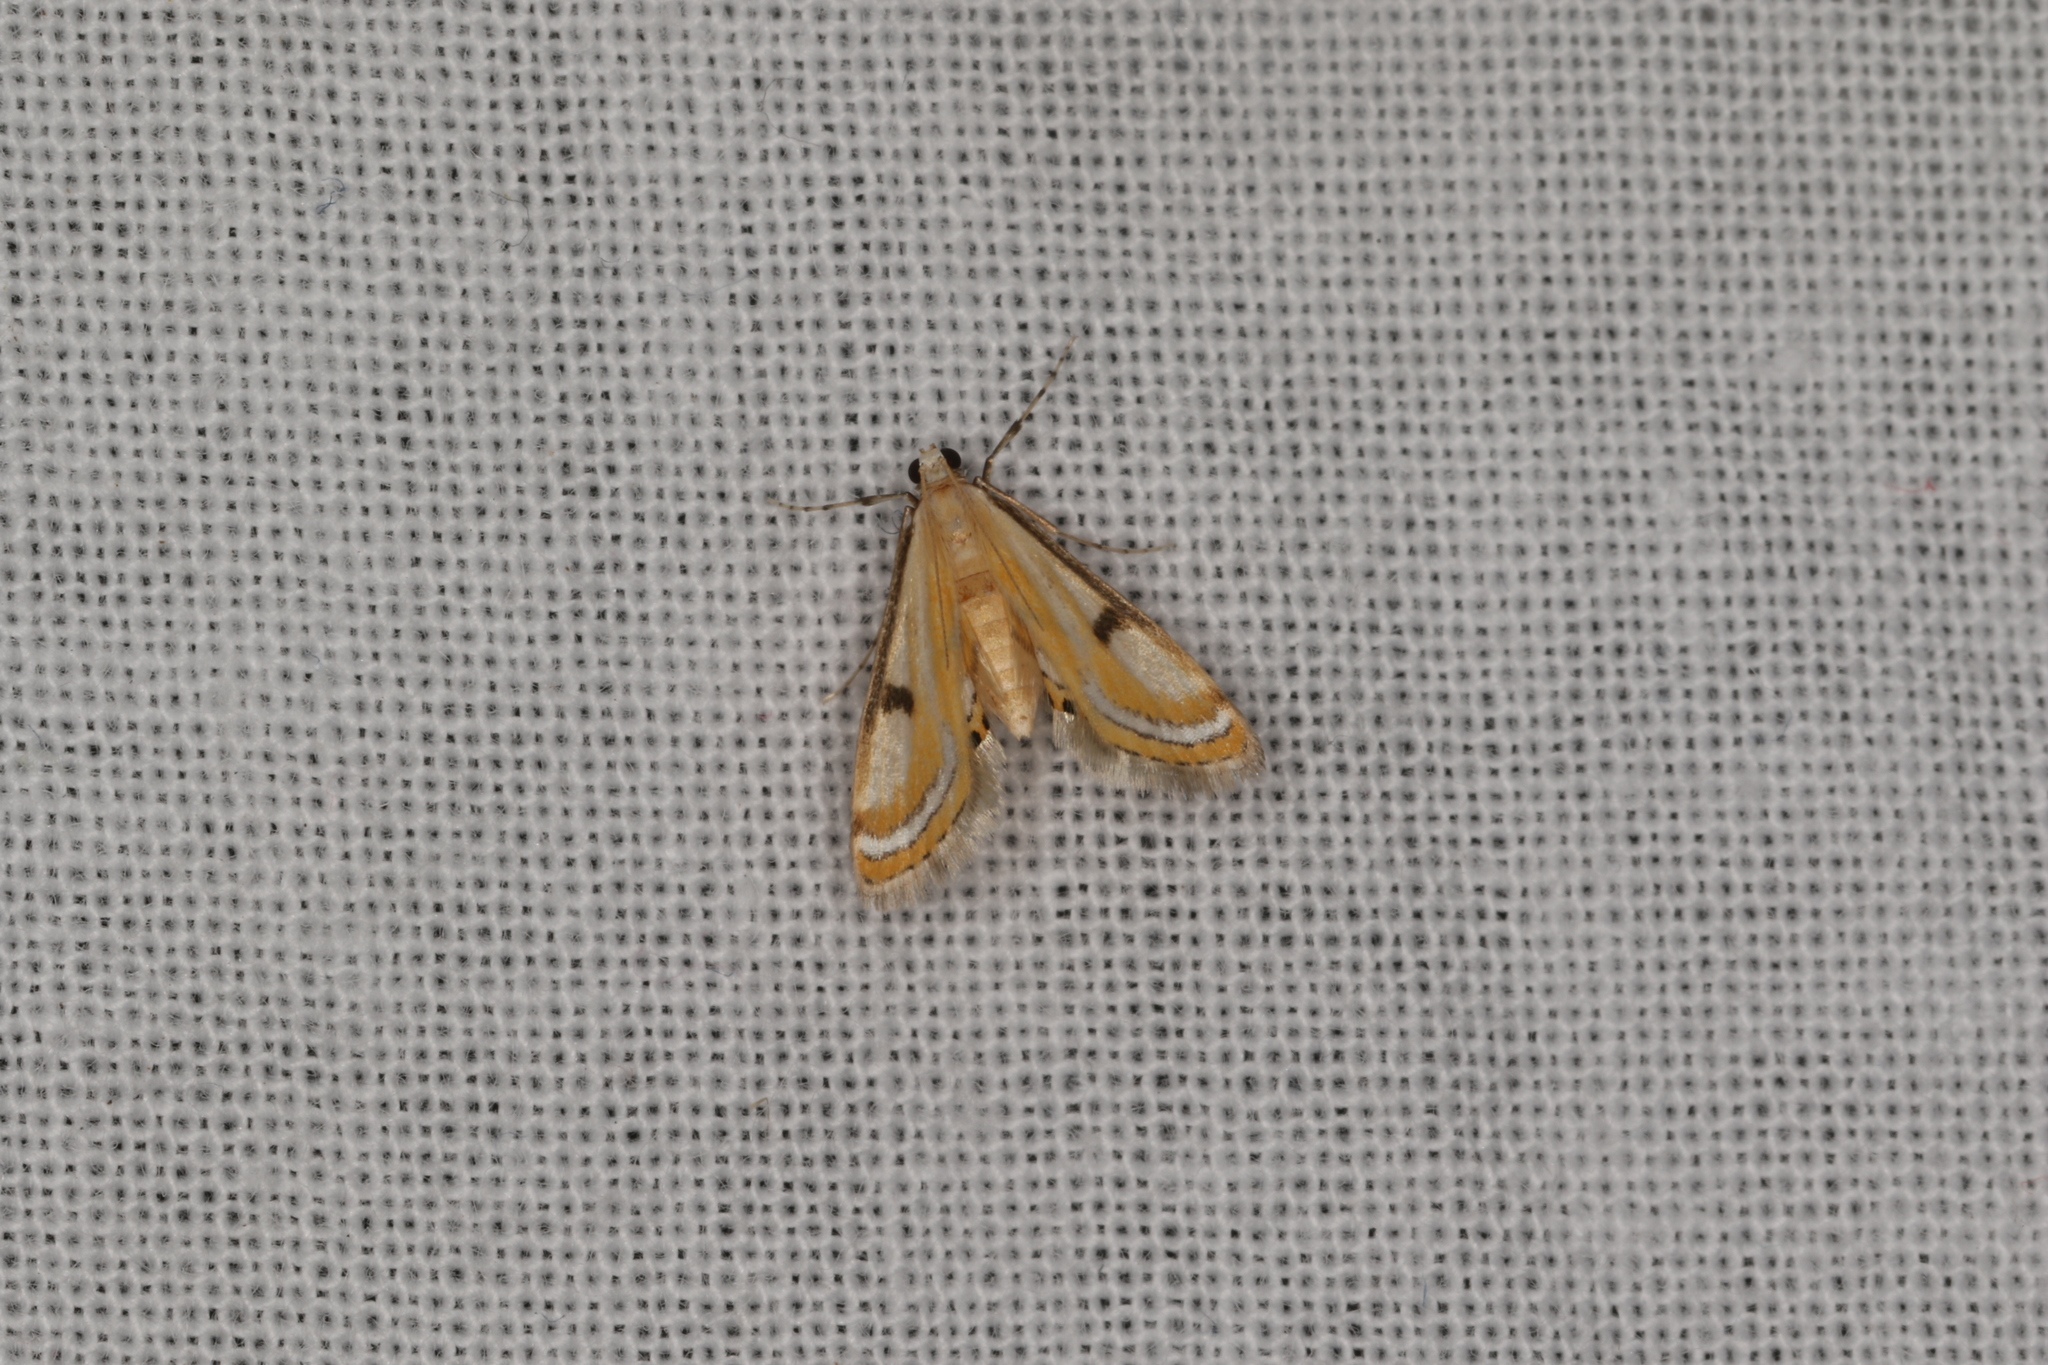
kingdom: Animalia
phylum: Arthropoda
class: Insecta
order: Lepidoptera
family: Crambidae
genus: Tetrernia
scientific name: Tetrernia teminitis
